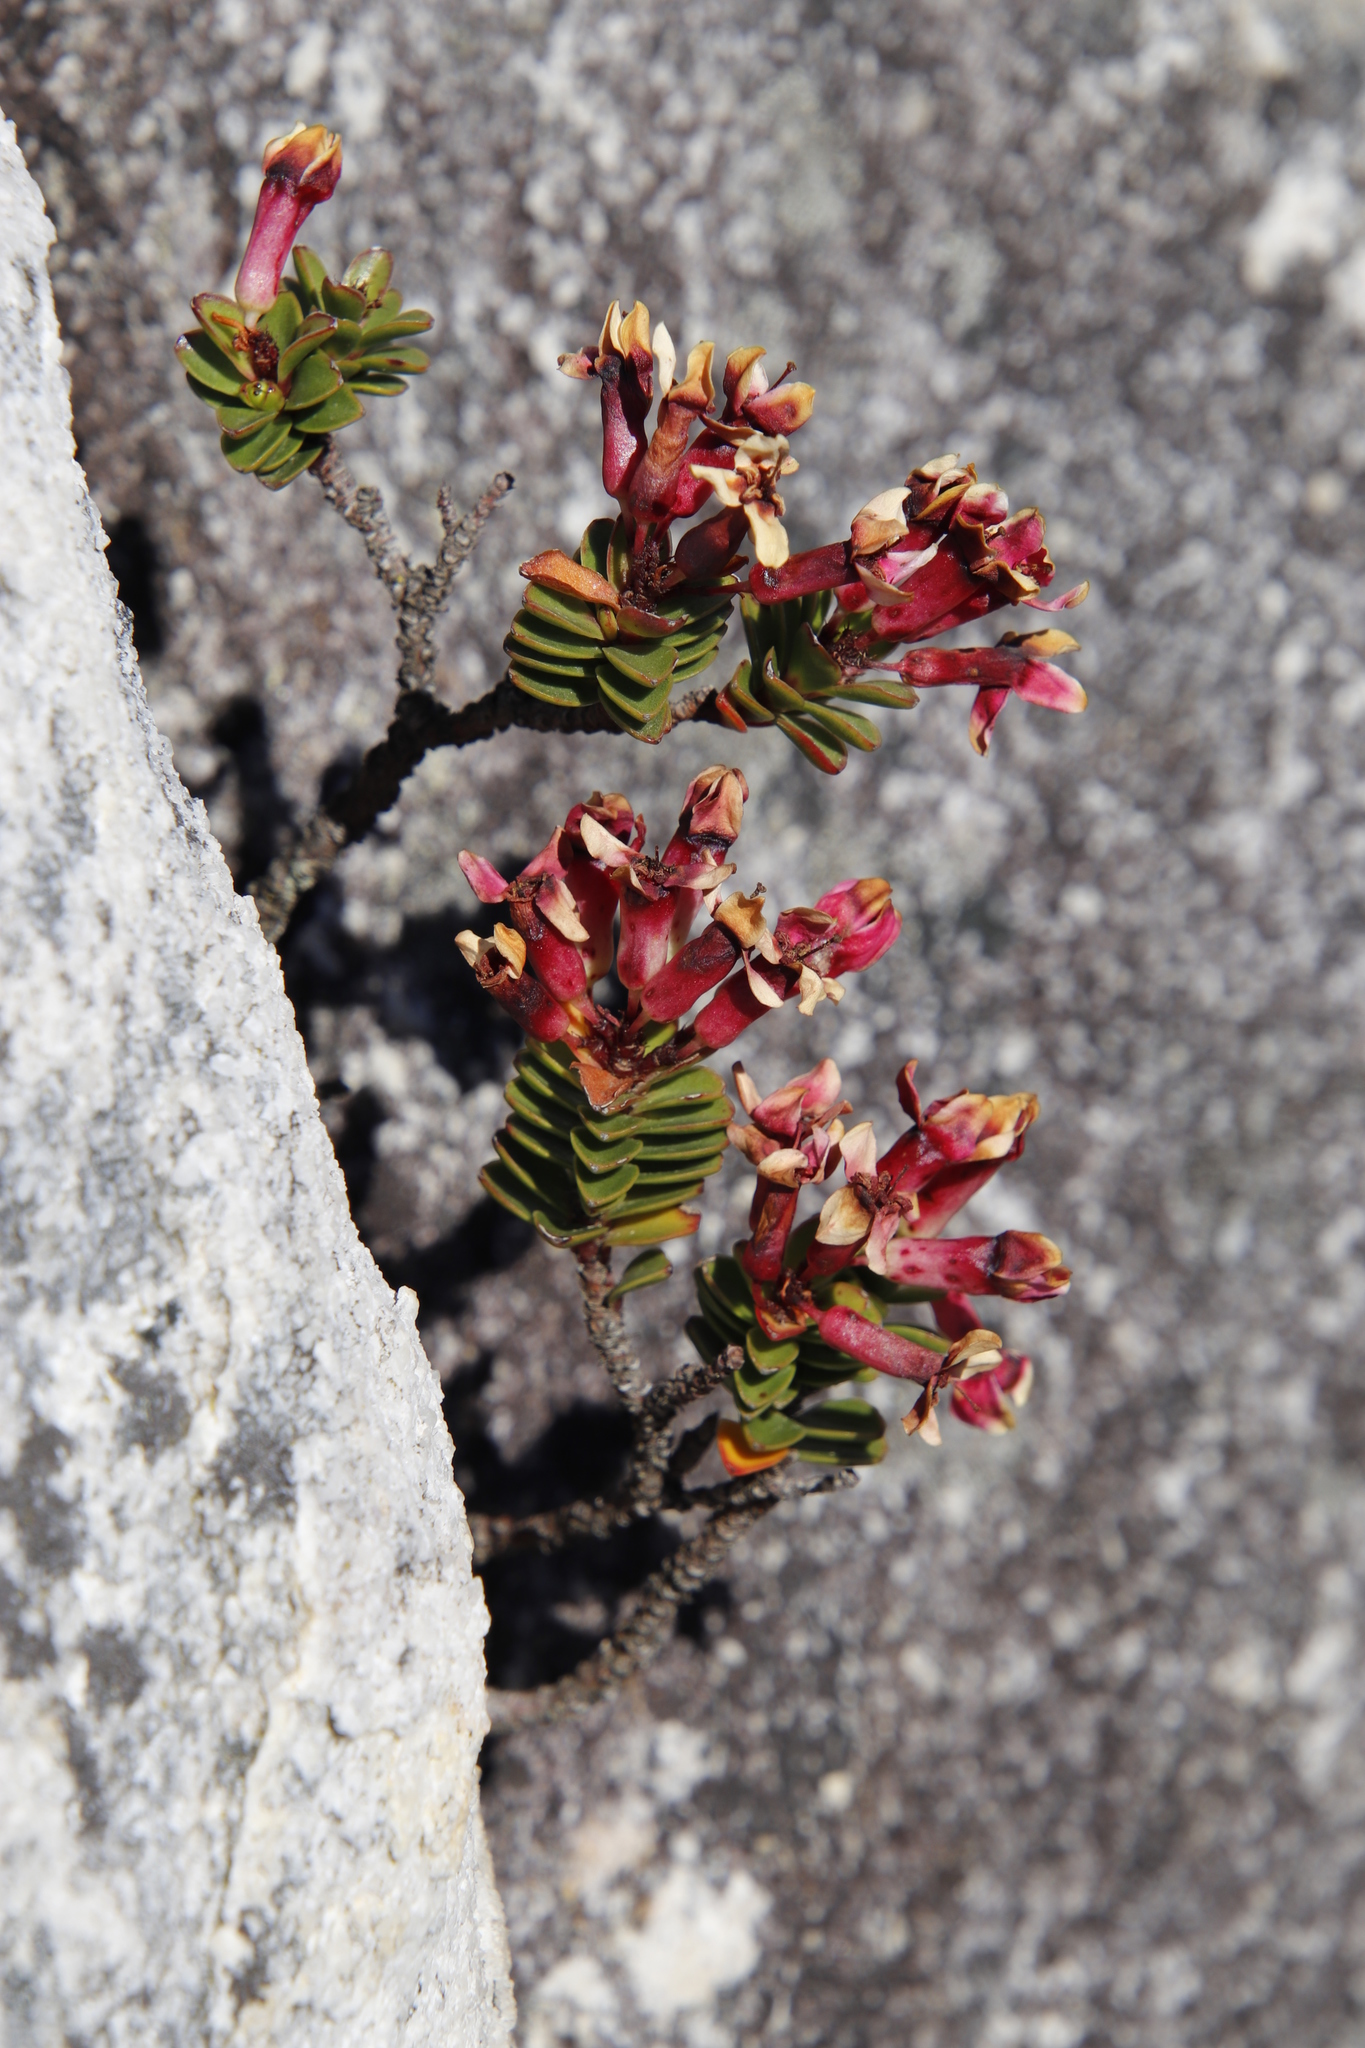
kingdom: Plantae
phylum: Tracheophyta
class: Magnoliopsida
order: Myrtales
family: Penaeaceae
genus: Sonderothamnus
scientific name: Sonderothamnus petraeus
